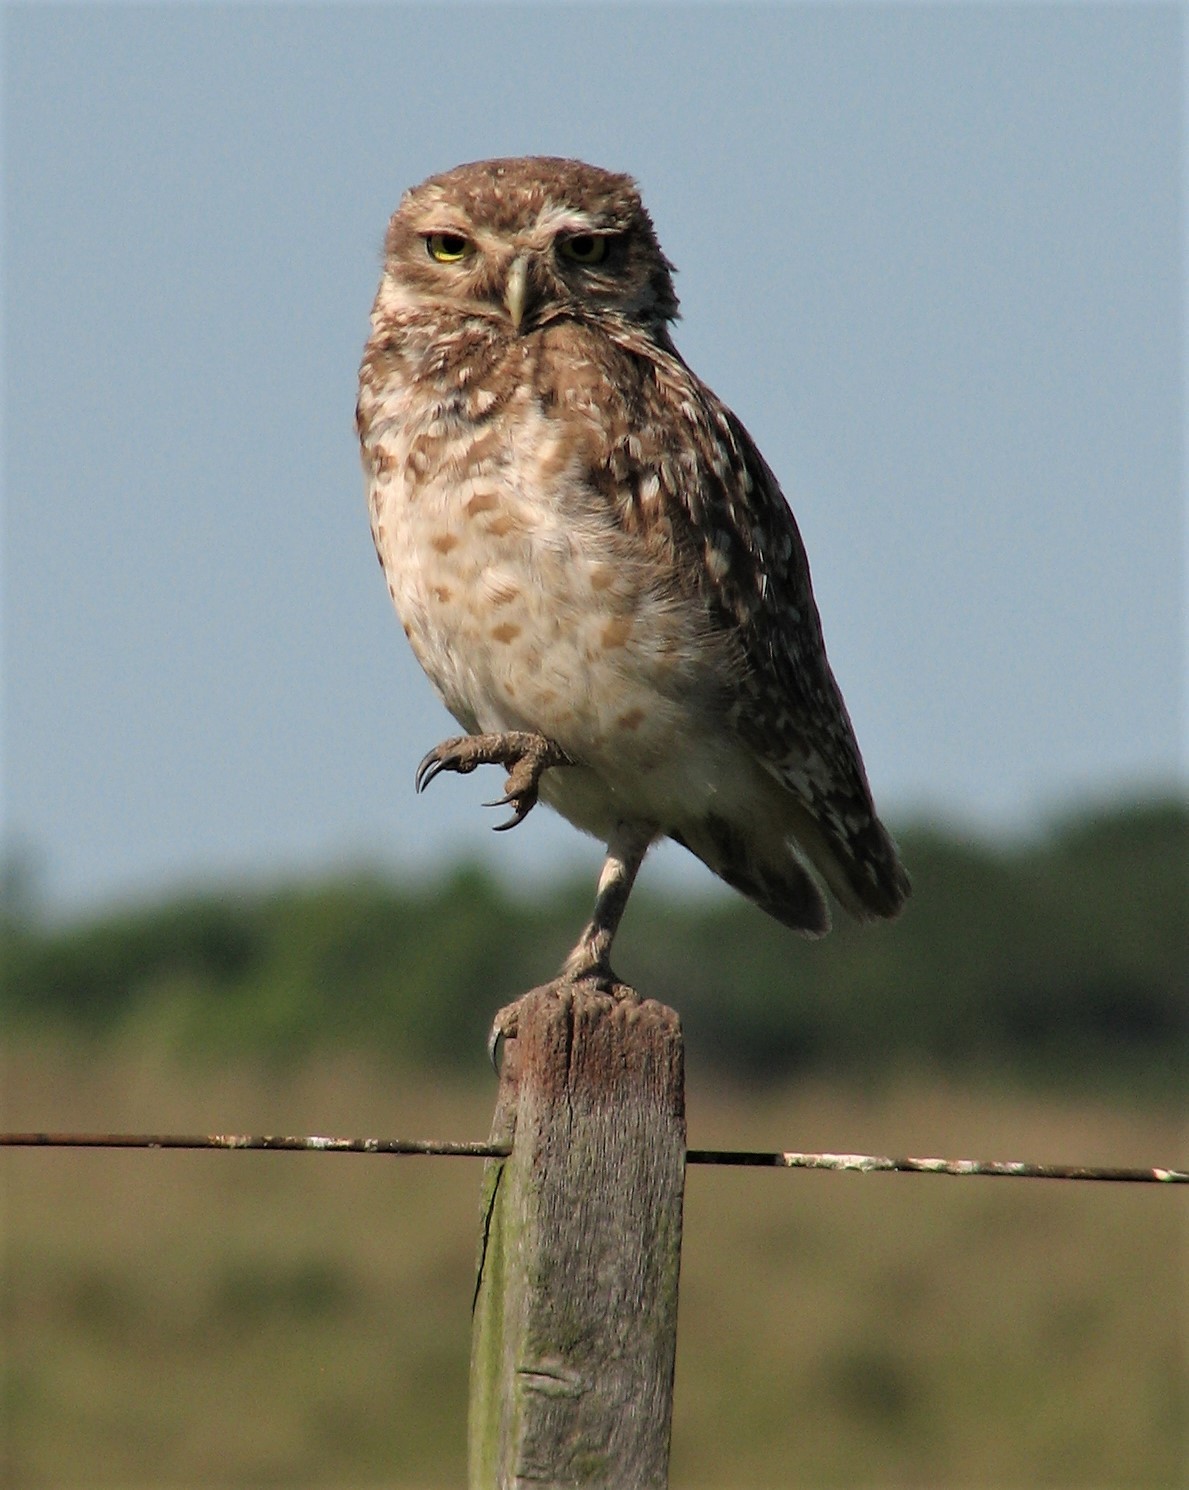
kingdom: Animalia
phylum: Chordata
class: Aves
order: Strigiformes
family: Strigidae
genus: Athene
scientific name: Athene cunicularia
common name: Burrowing owl
